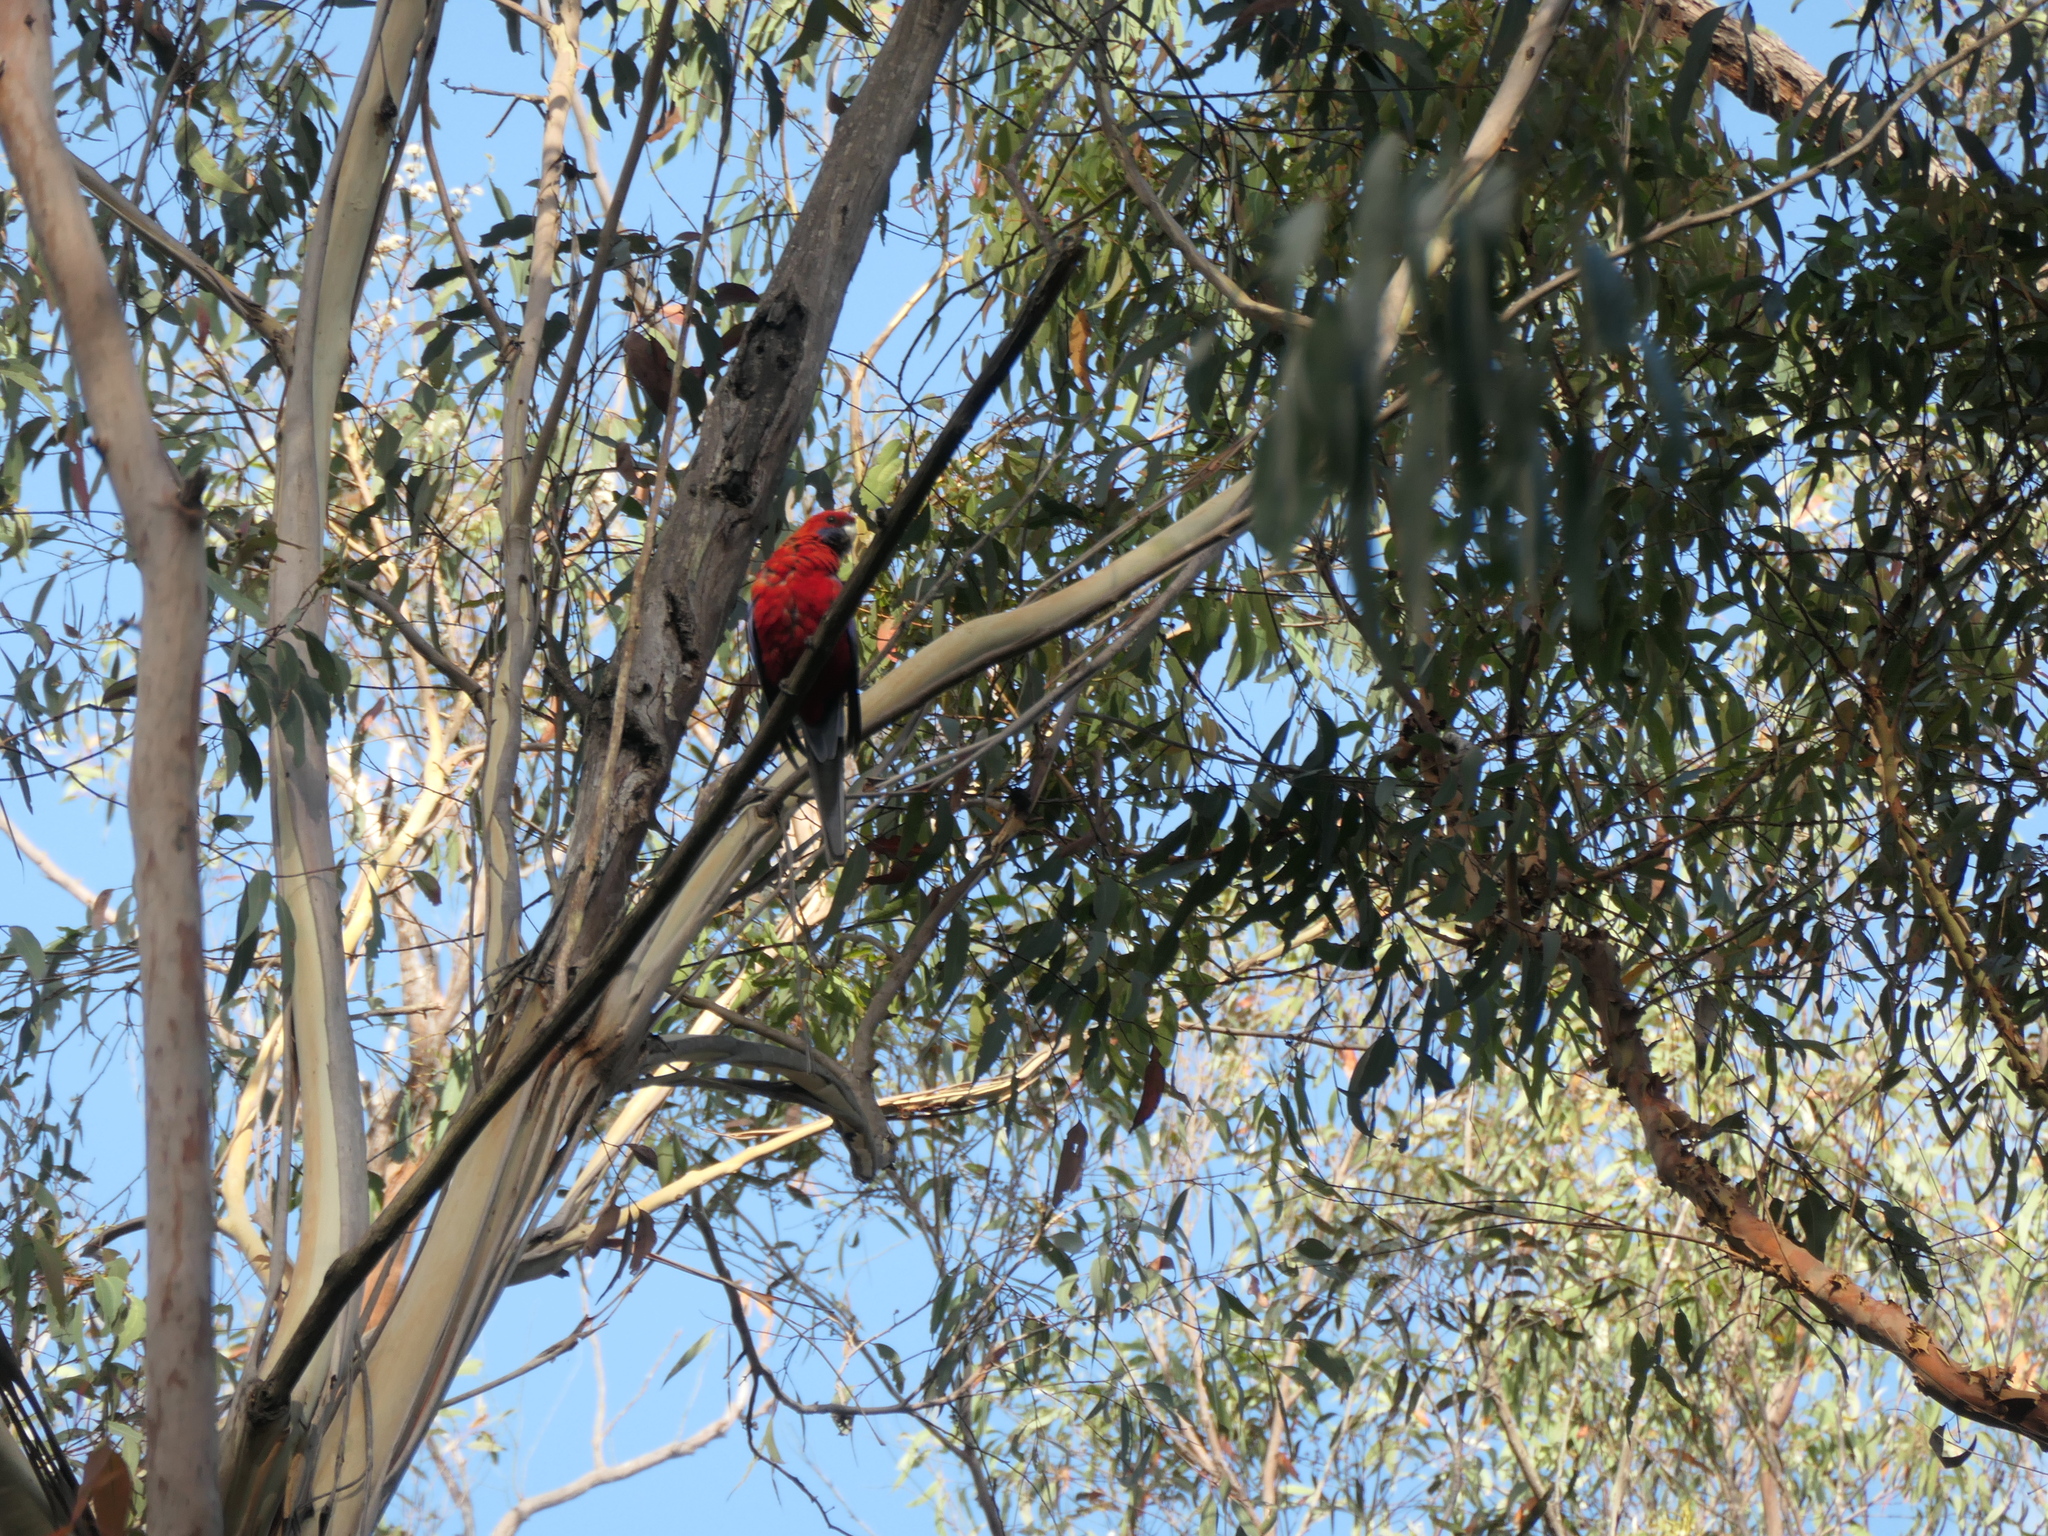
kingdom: Animalia
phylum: Chordata
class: Aves
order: Psittaciformes
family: Psittacidae
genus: Platycercus
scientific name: Platycercus elegans
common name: Crimson rosella
